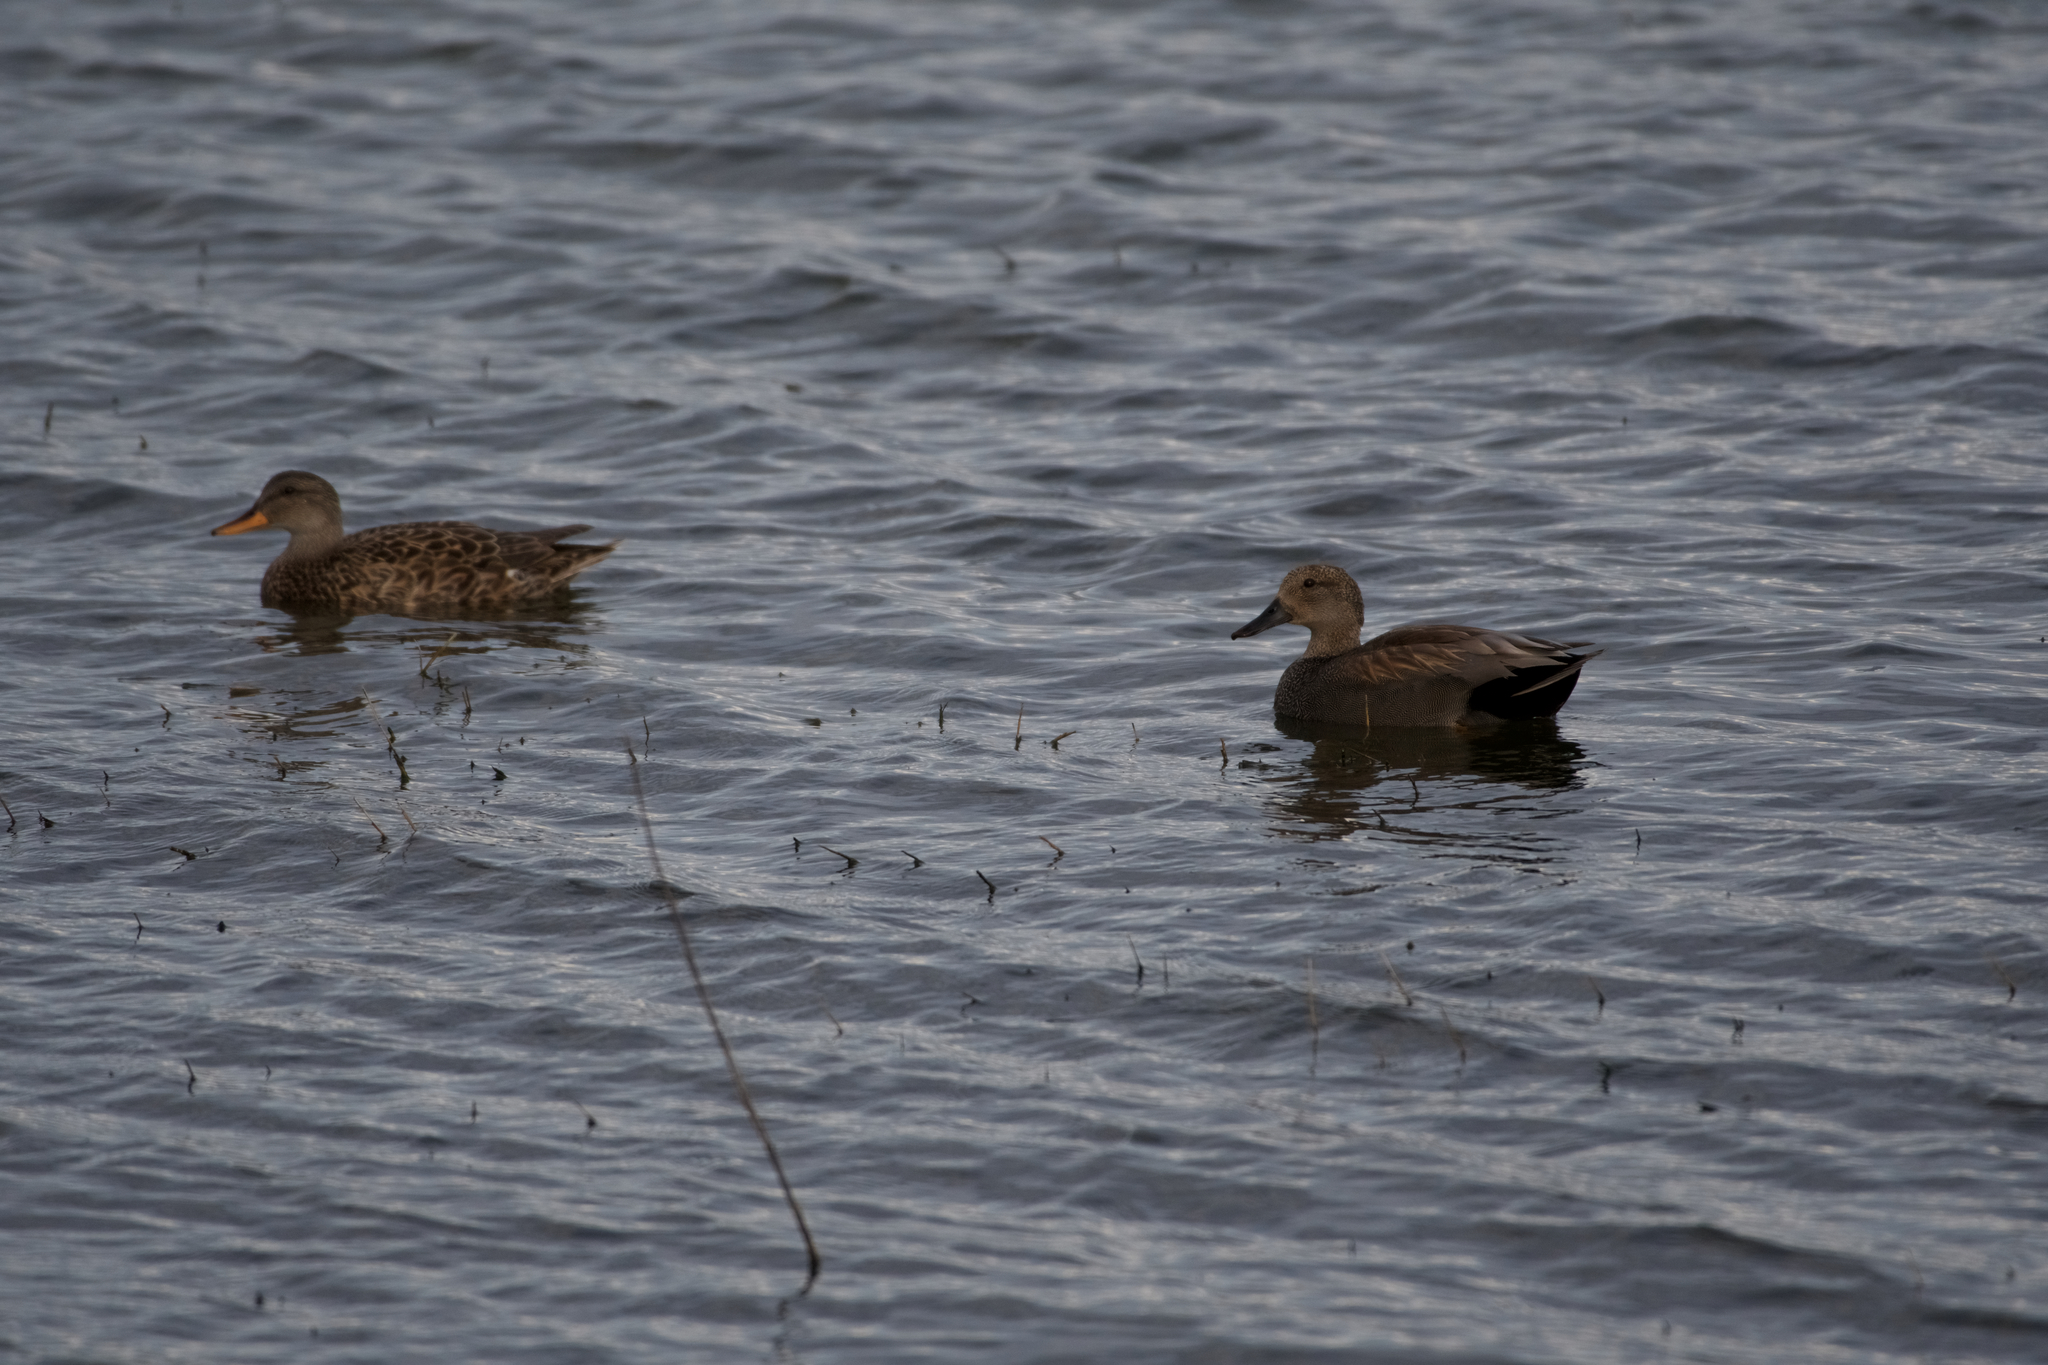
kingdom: Animalia
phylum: Chordata
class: Aves
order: Anseriformes
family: Anatidae
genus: Mareca
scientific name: Mareca strepera
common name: Gadwall
